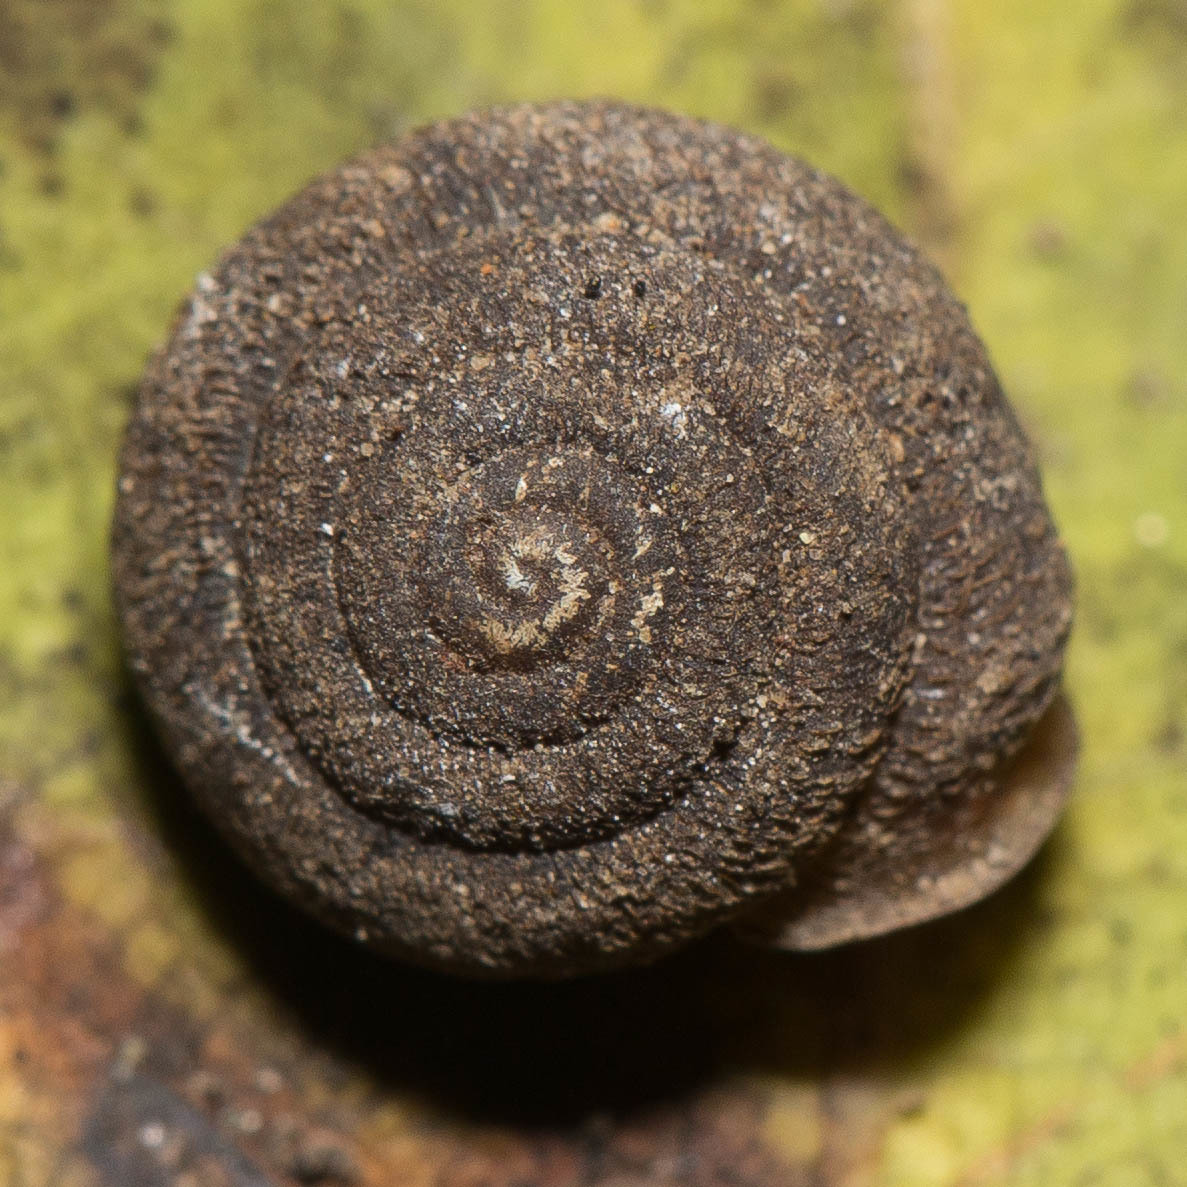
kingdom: Animalia
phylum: Mollusca
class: Gastropoda
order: Stylommatophora
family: Polygyridae
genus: Trilobopsis
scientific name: Trilobopsis loricata
